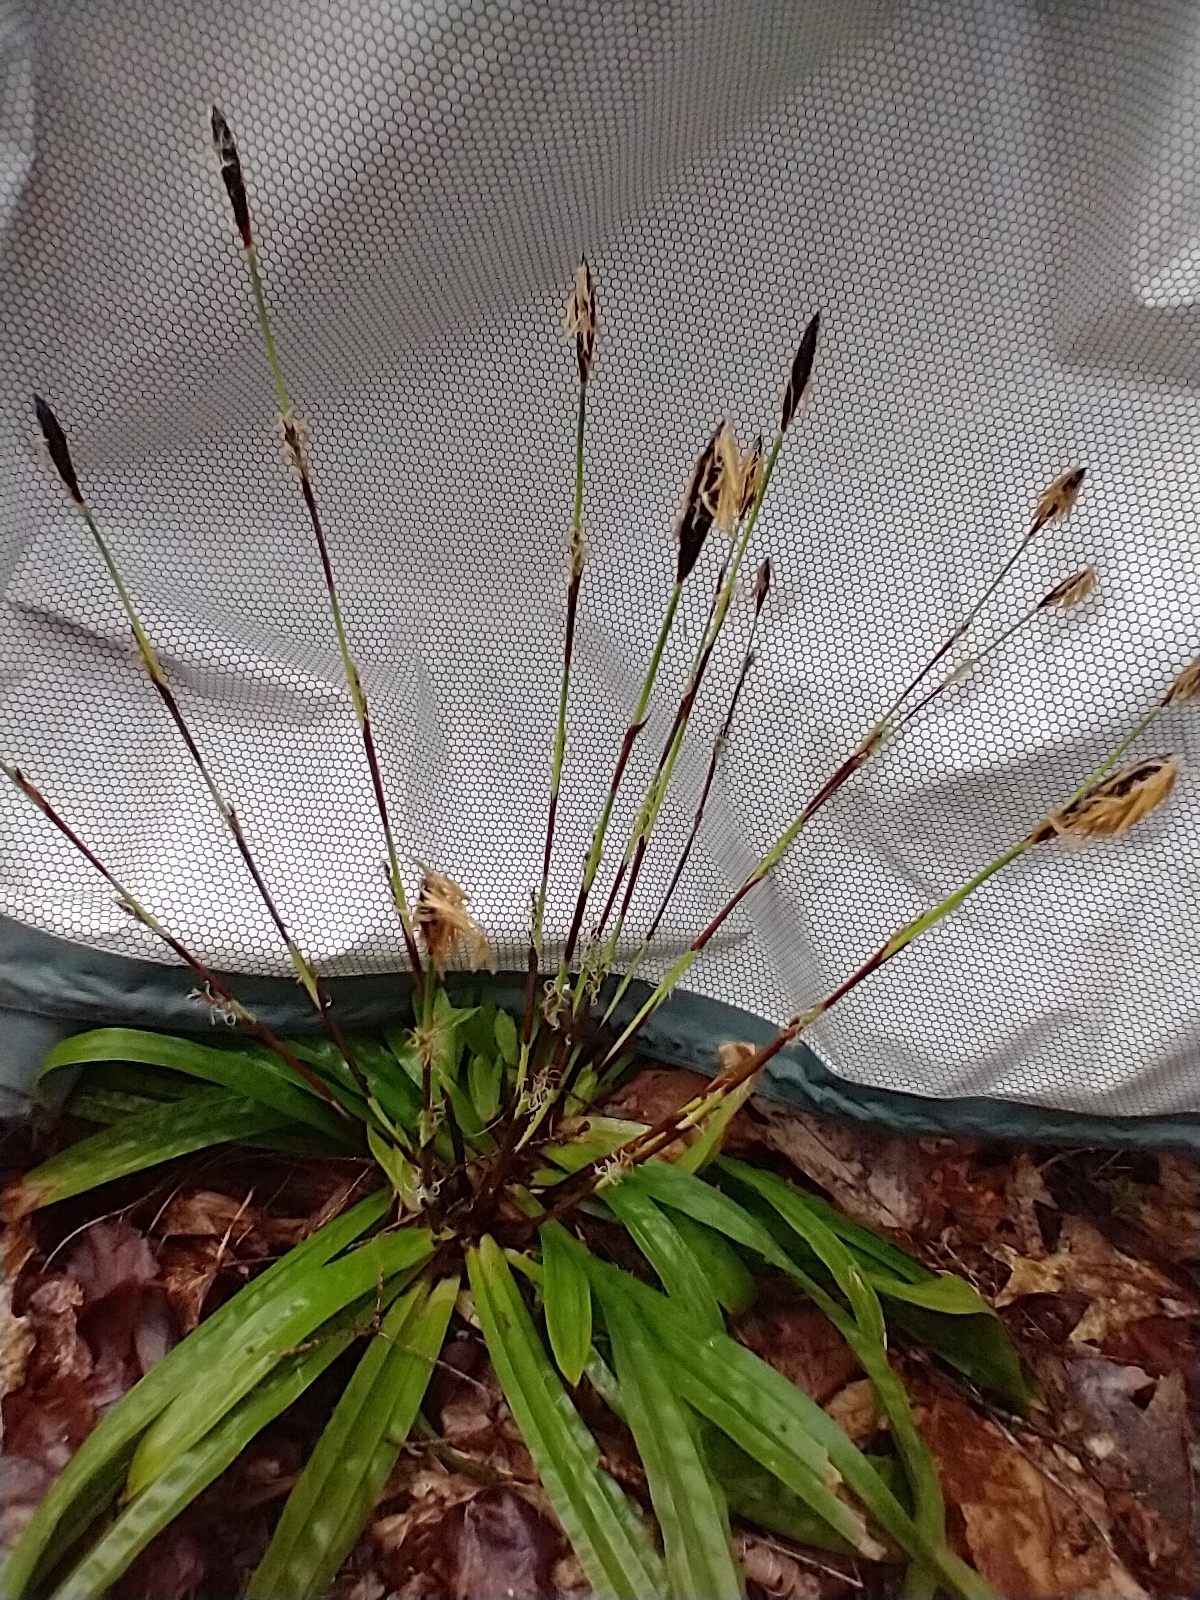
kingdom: Plantae
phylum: Tracheophyta
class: Liliopsida
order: Poales
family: Cyperaceae
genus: Carex
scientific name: Carex plantaginea
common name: Plantain-leaved sedge
